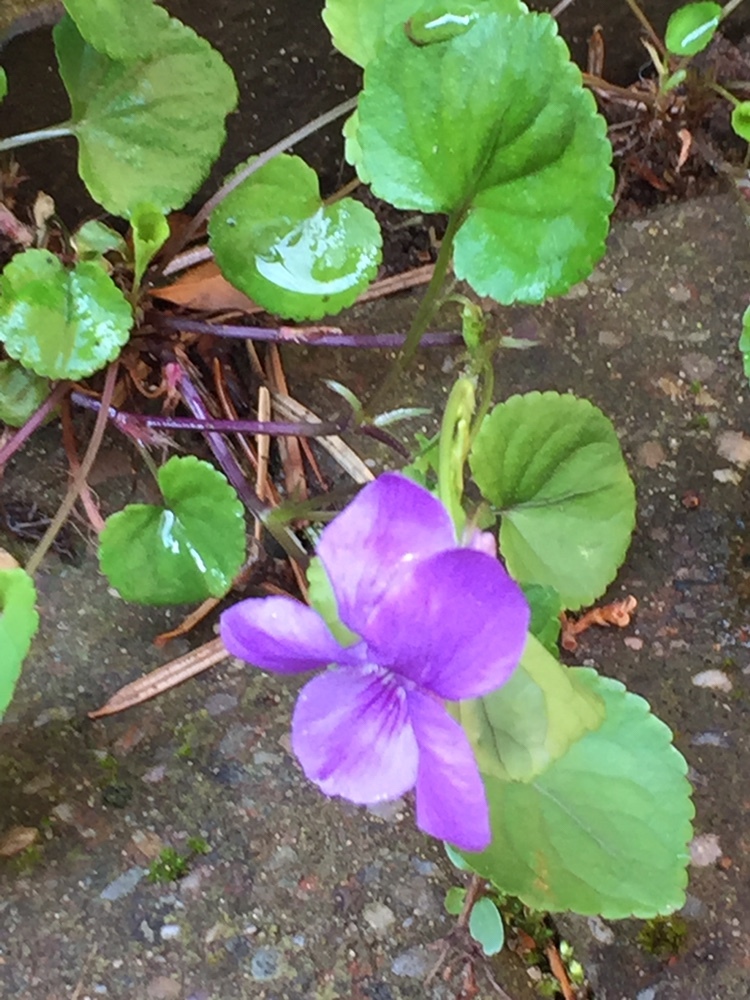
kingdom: Plantae
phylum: Tracheophyta
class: Magnoliopsida
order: Malpighiales
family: Violaceae
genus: Viola
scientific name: Viola riviniana
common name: Common dog-violet
